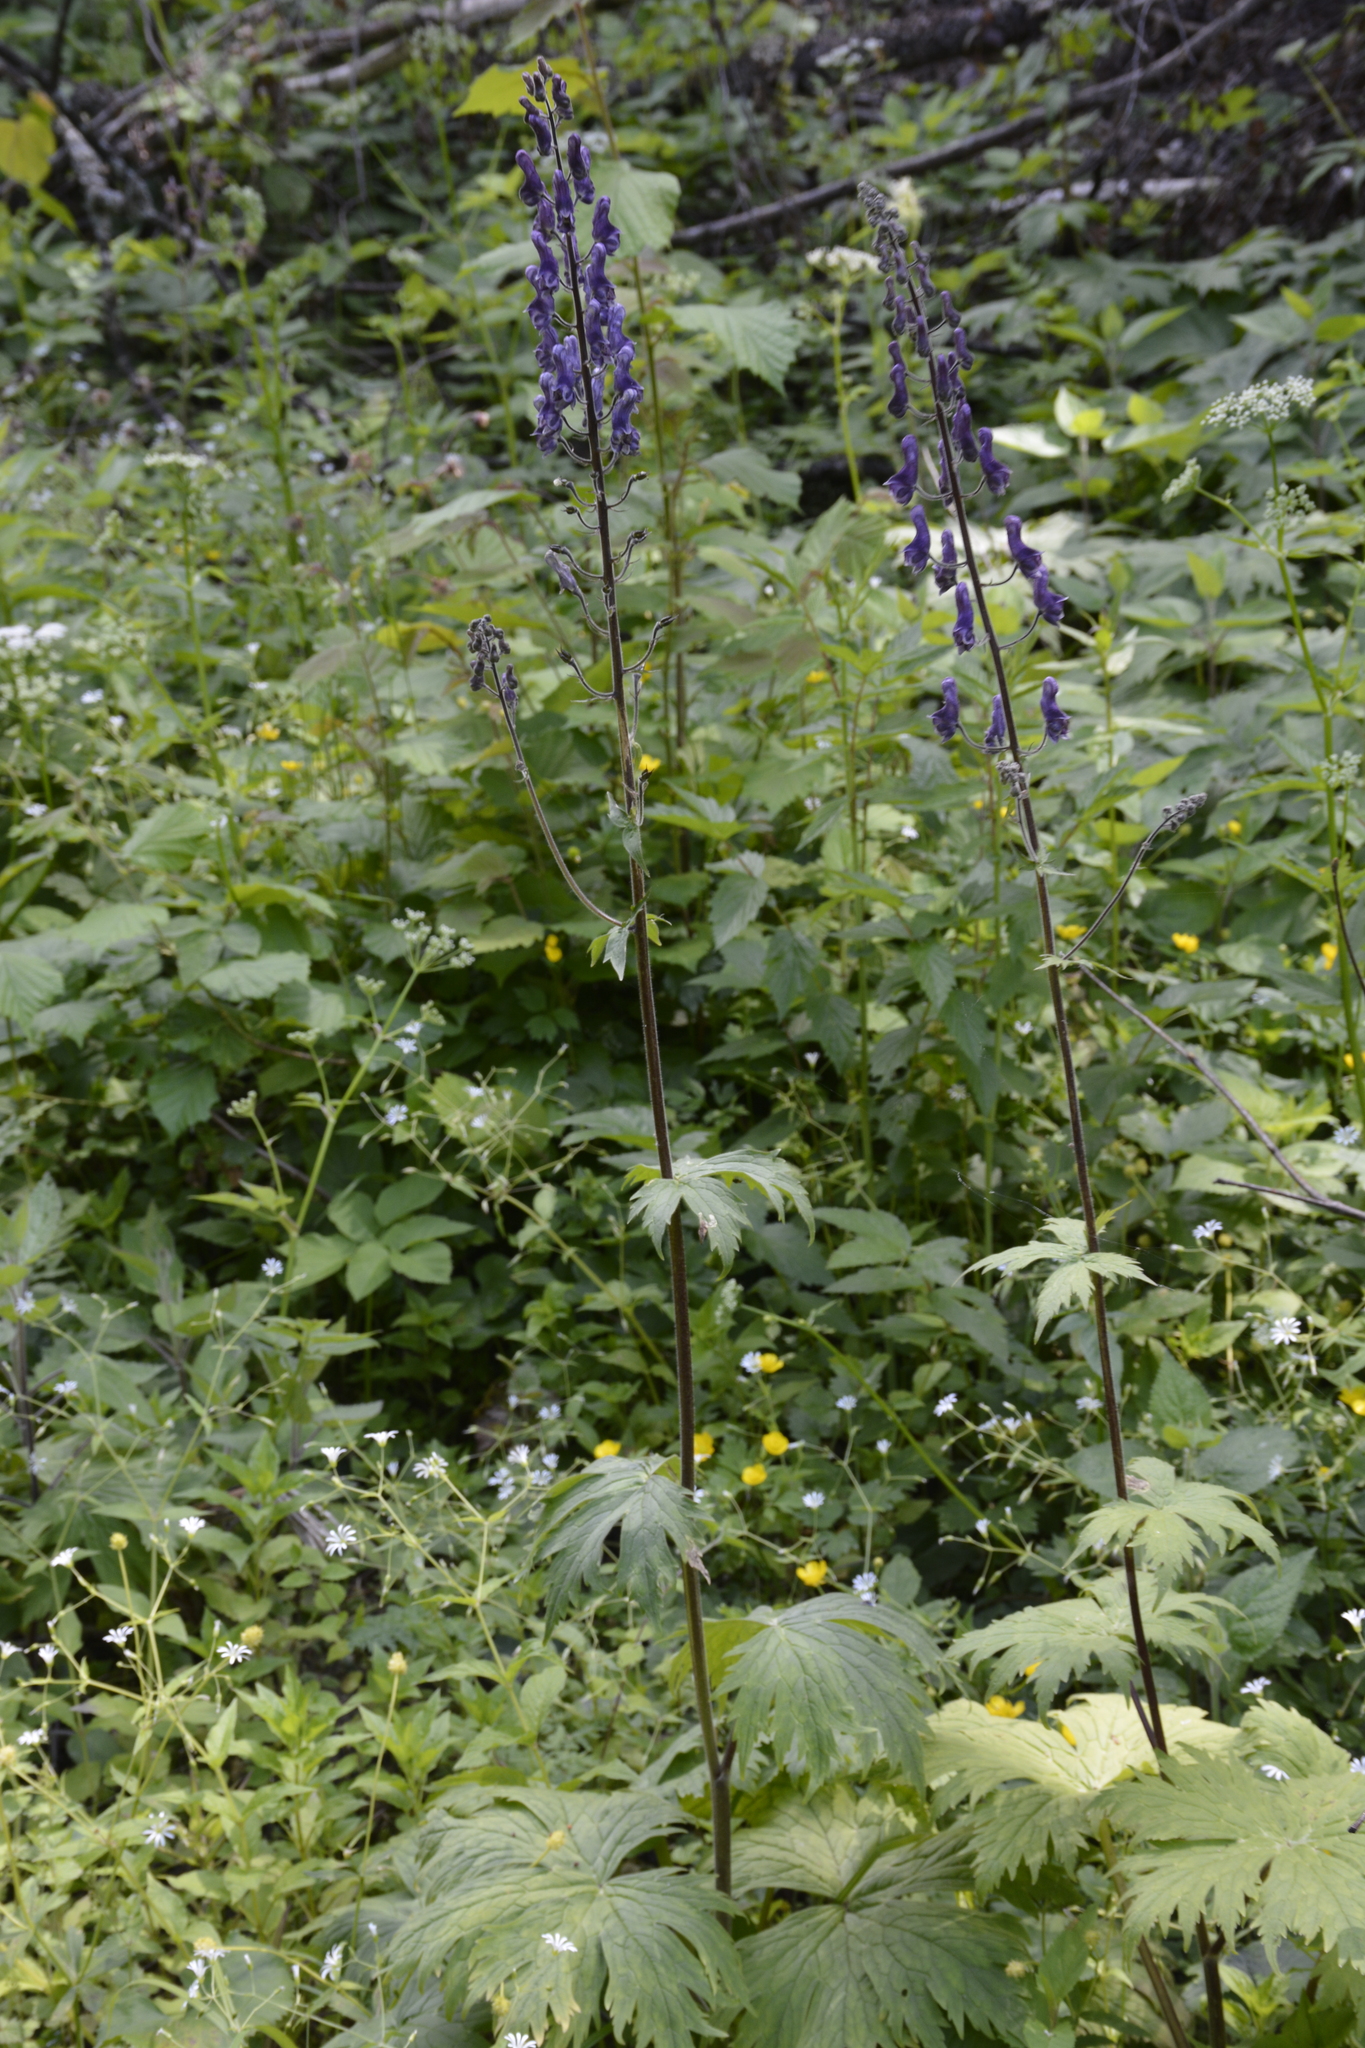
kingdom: Plantae
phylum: Tracheophyta
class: Magnoliopsida
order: Ranunculales
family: Ranunculaceae
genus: Aconitum
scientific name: Aconitum septentrionale
